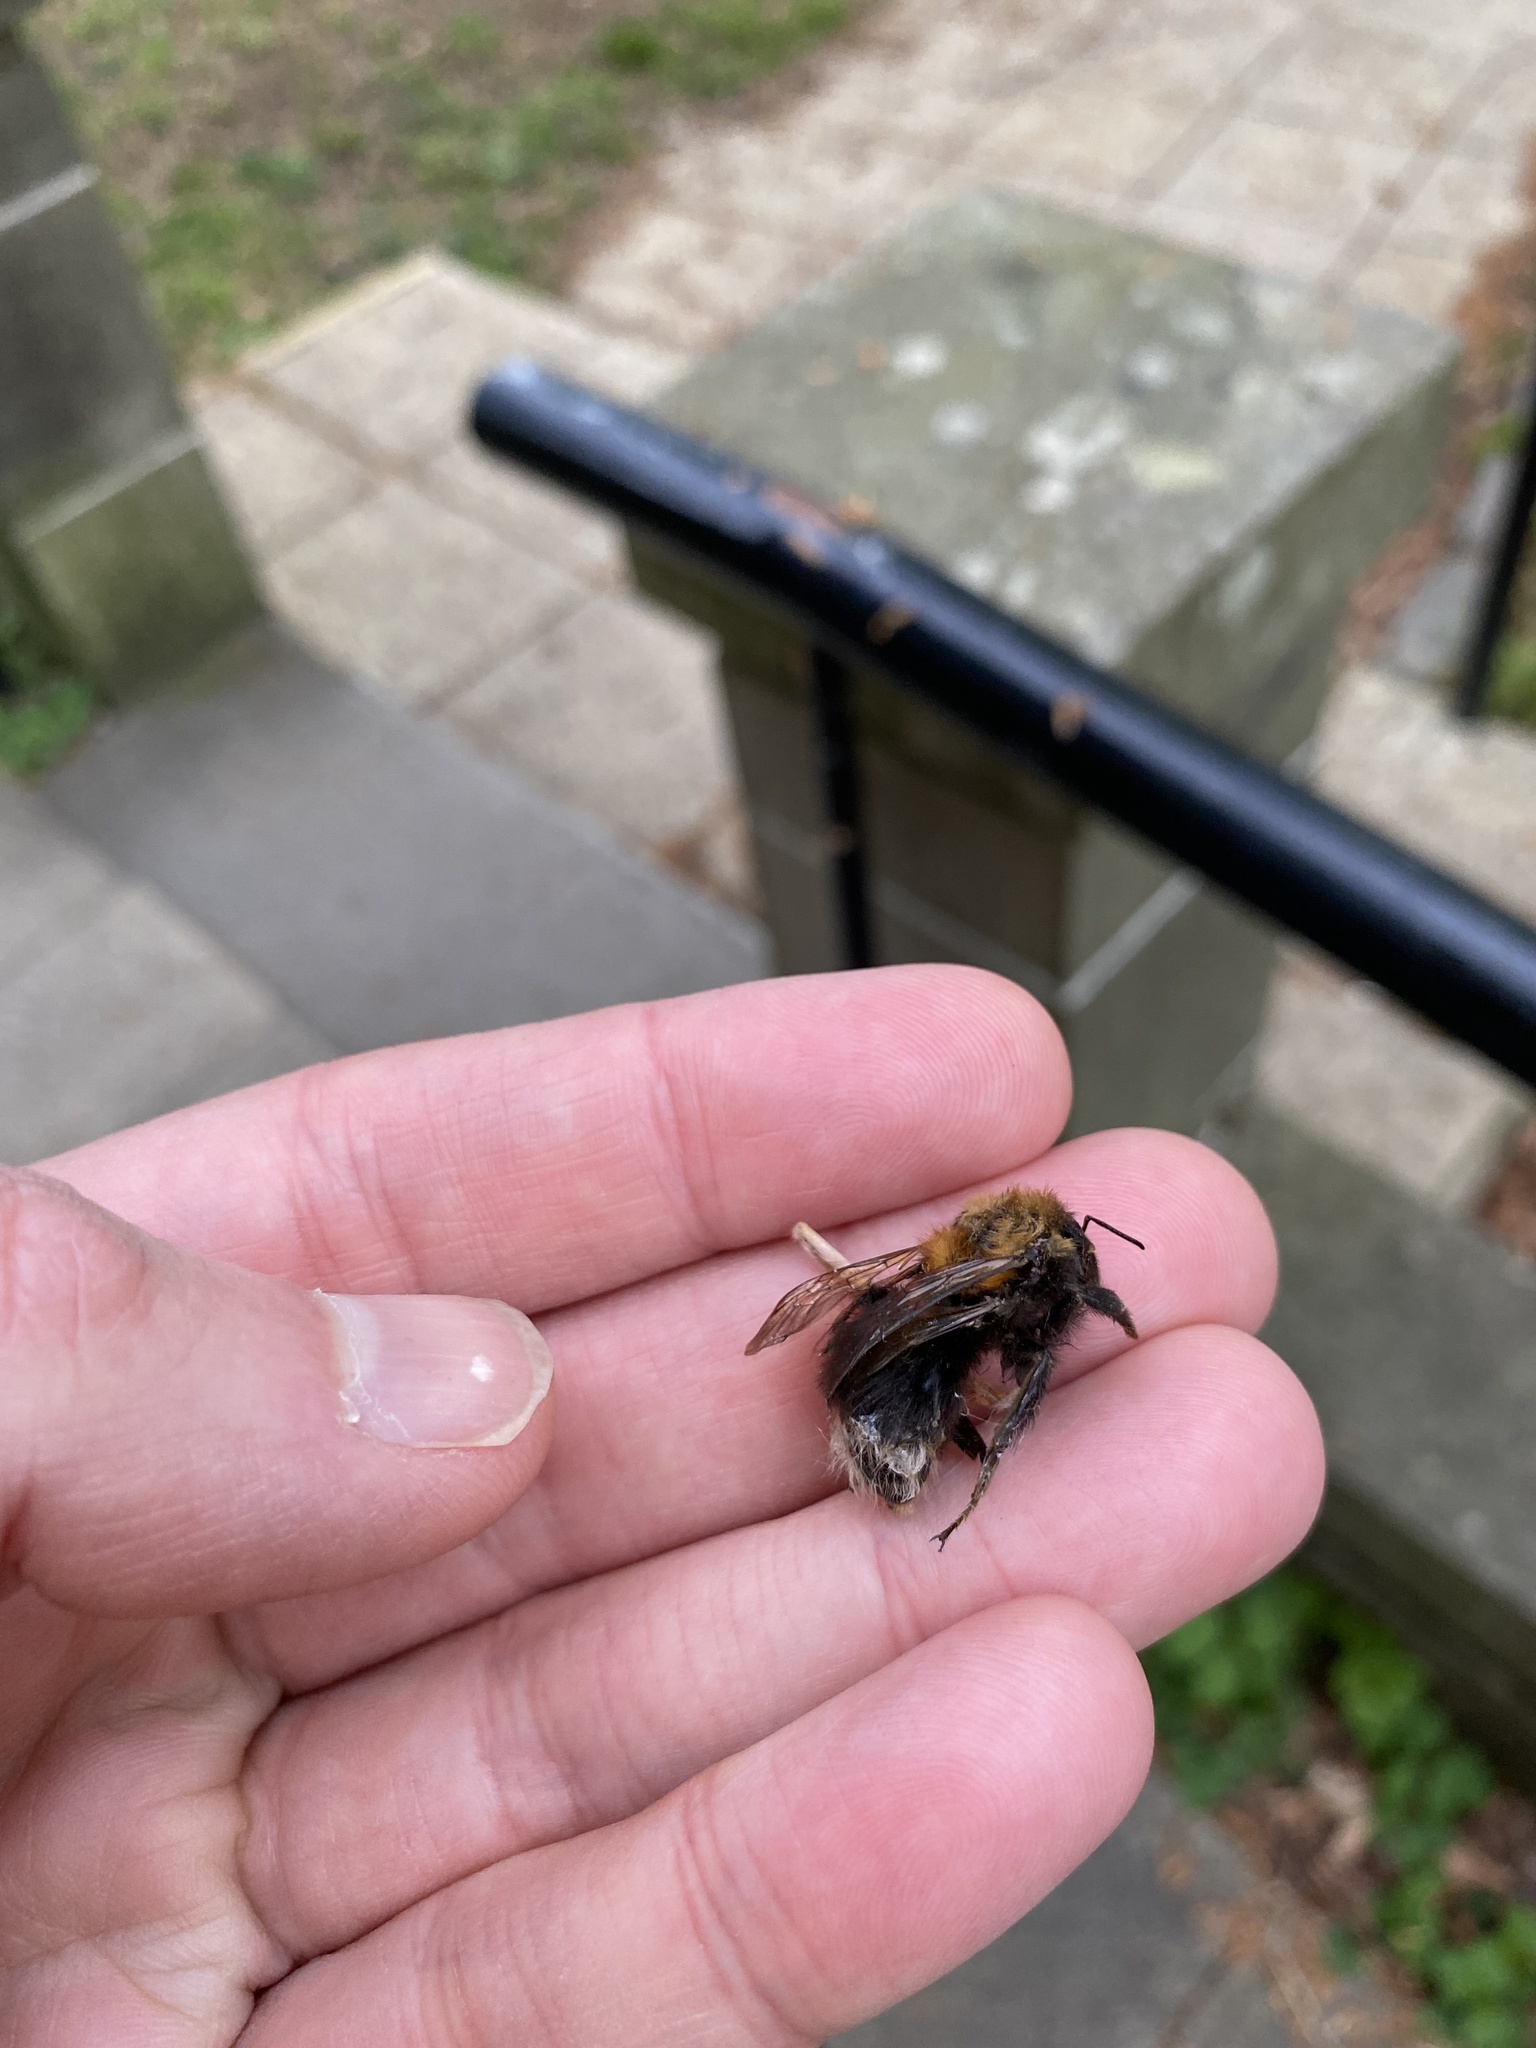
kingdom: Animalia
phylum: Arthropoda
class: Insecta
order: Hymenoptera
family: Apidae
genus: Bombus
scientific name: Bombus hypnorum
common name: New garden bumblebee
